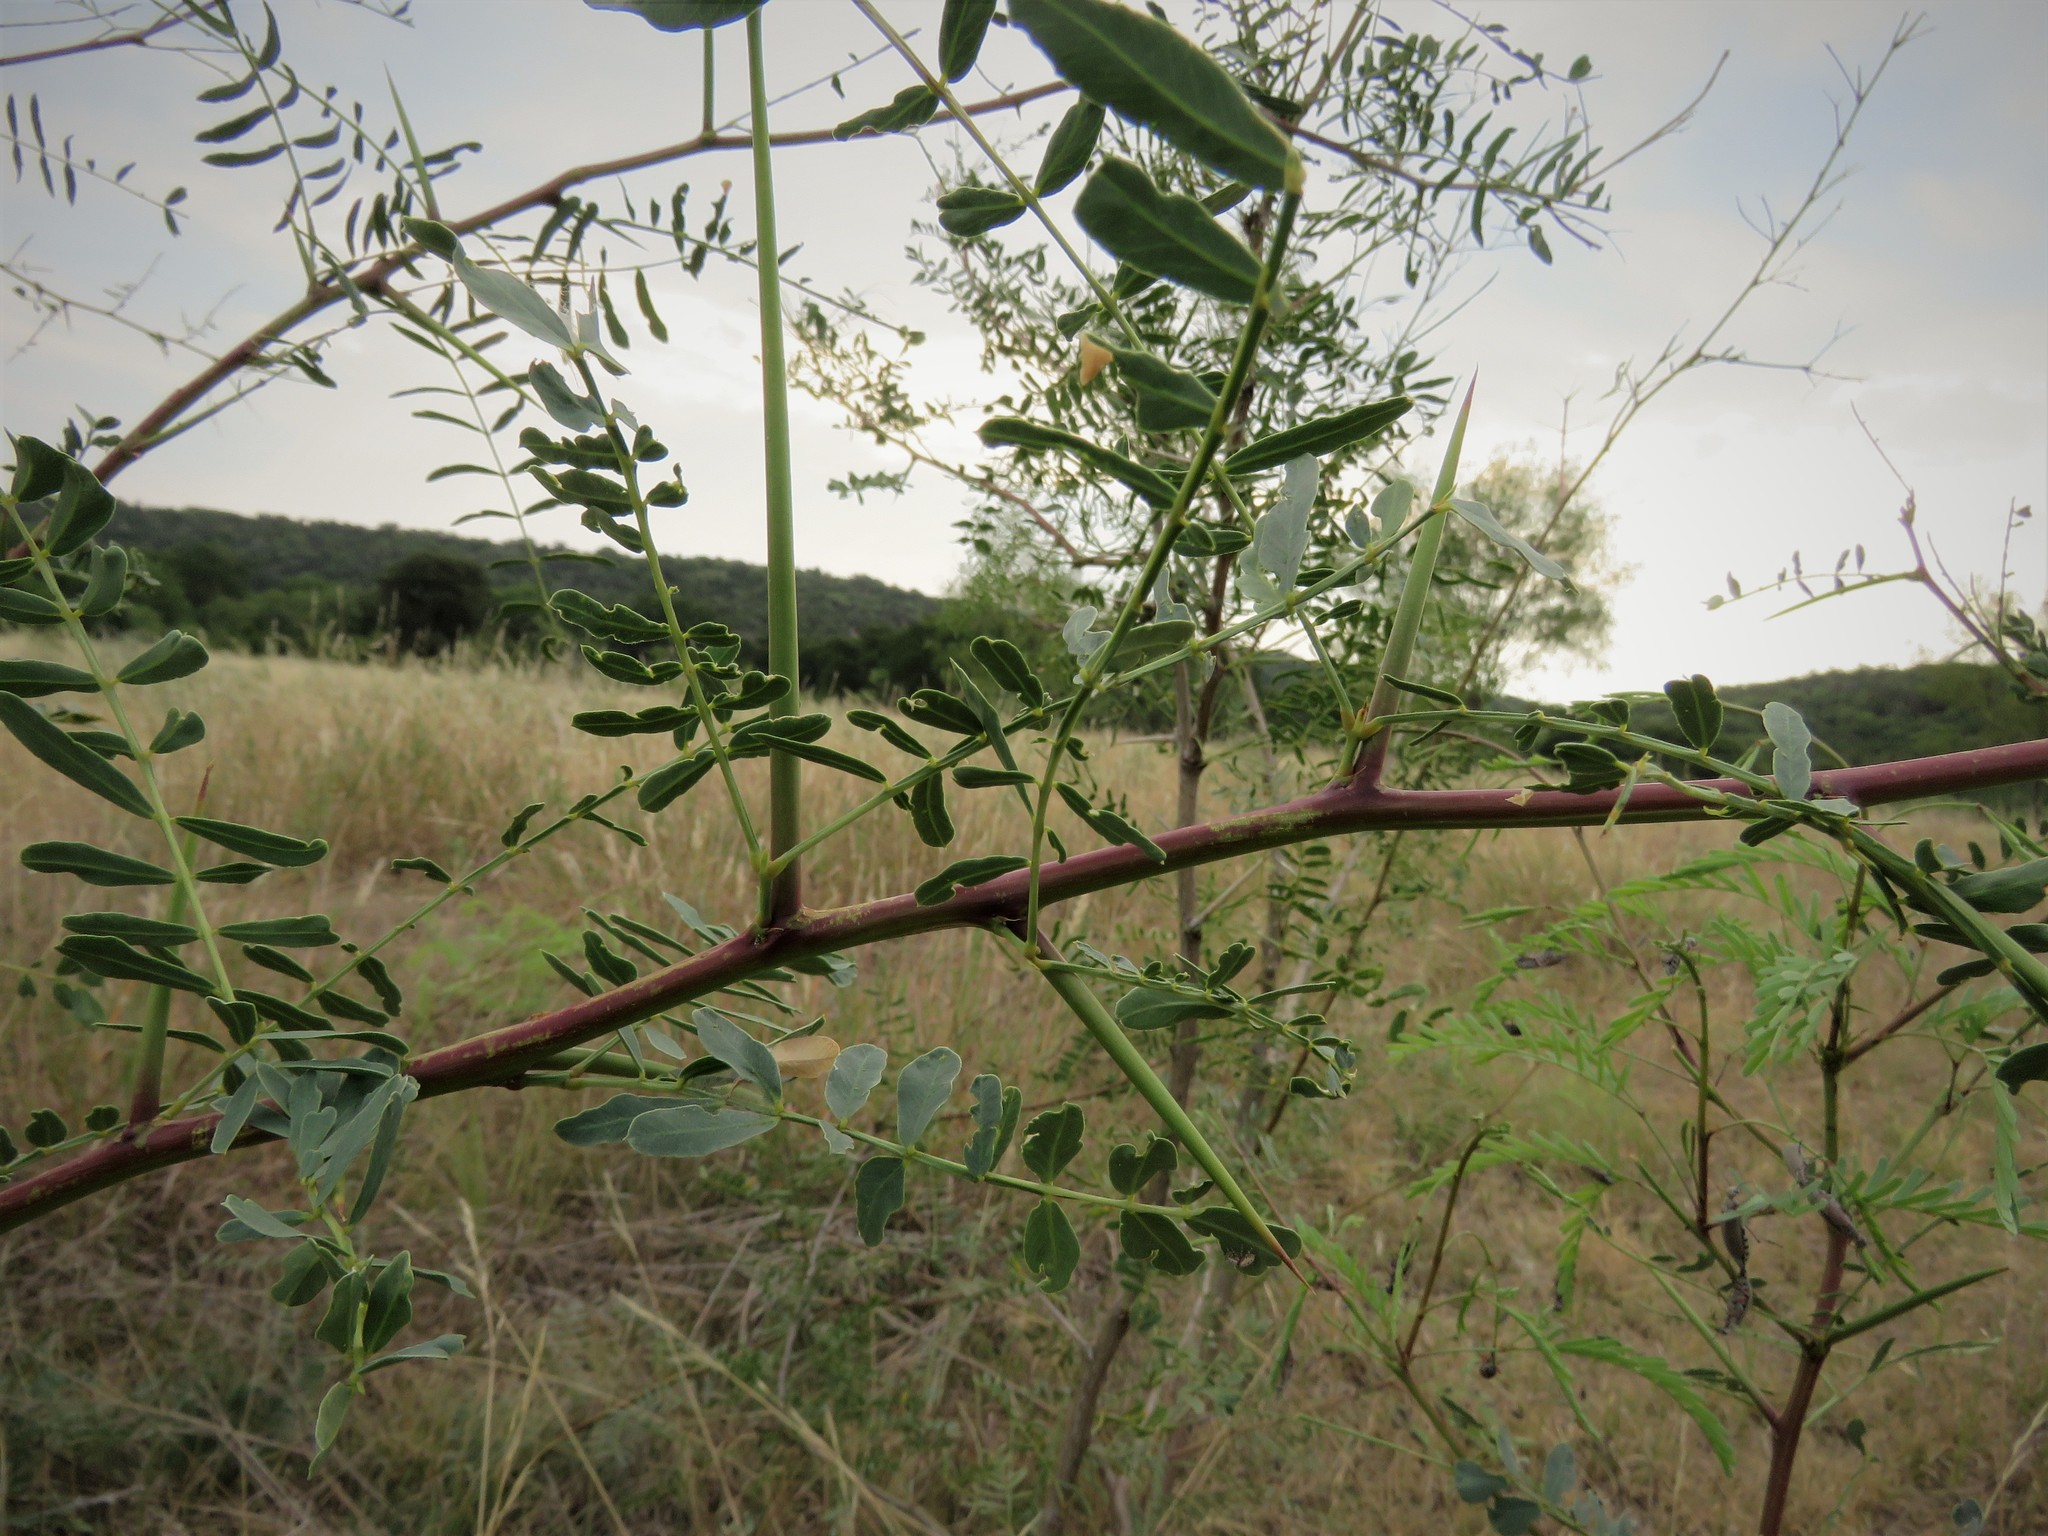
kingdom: Plantae
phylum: Tracheophyta
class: Magnoliopsida
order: Fabales
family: Fabaceae
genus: Prosopis
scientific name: Prosopis glandulosa
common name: Honey mesquite
